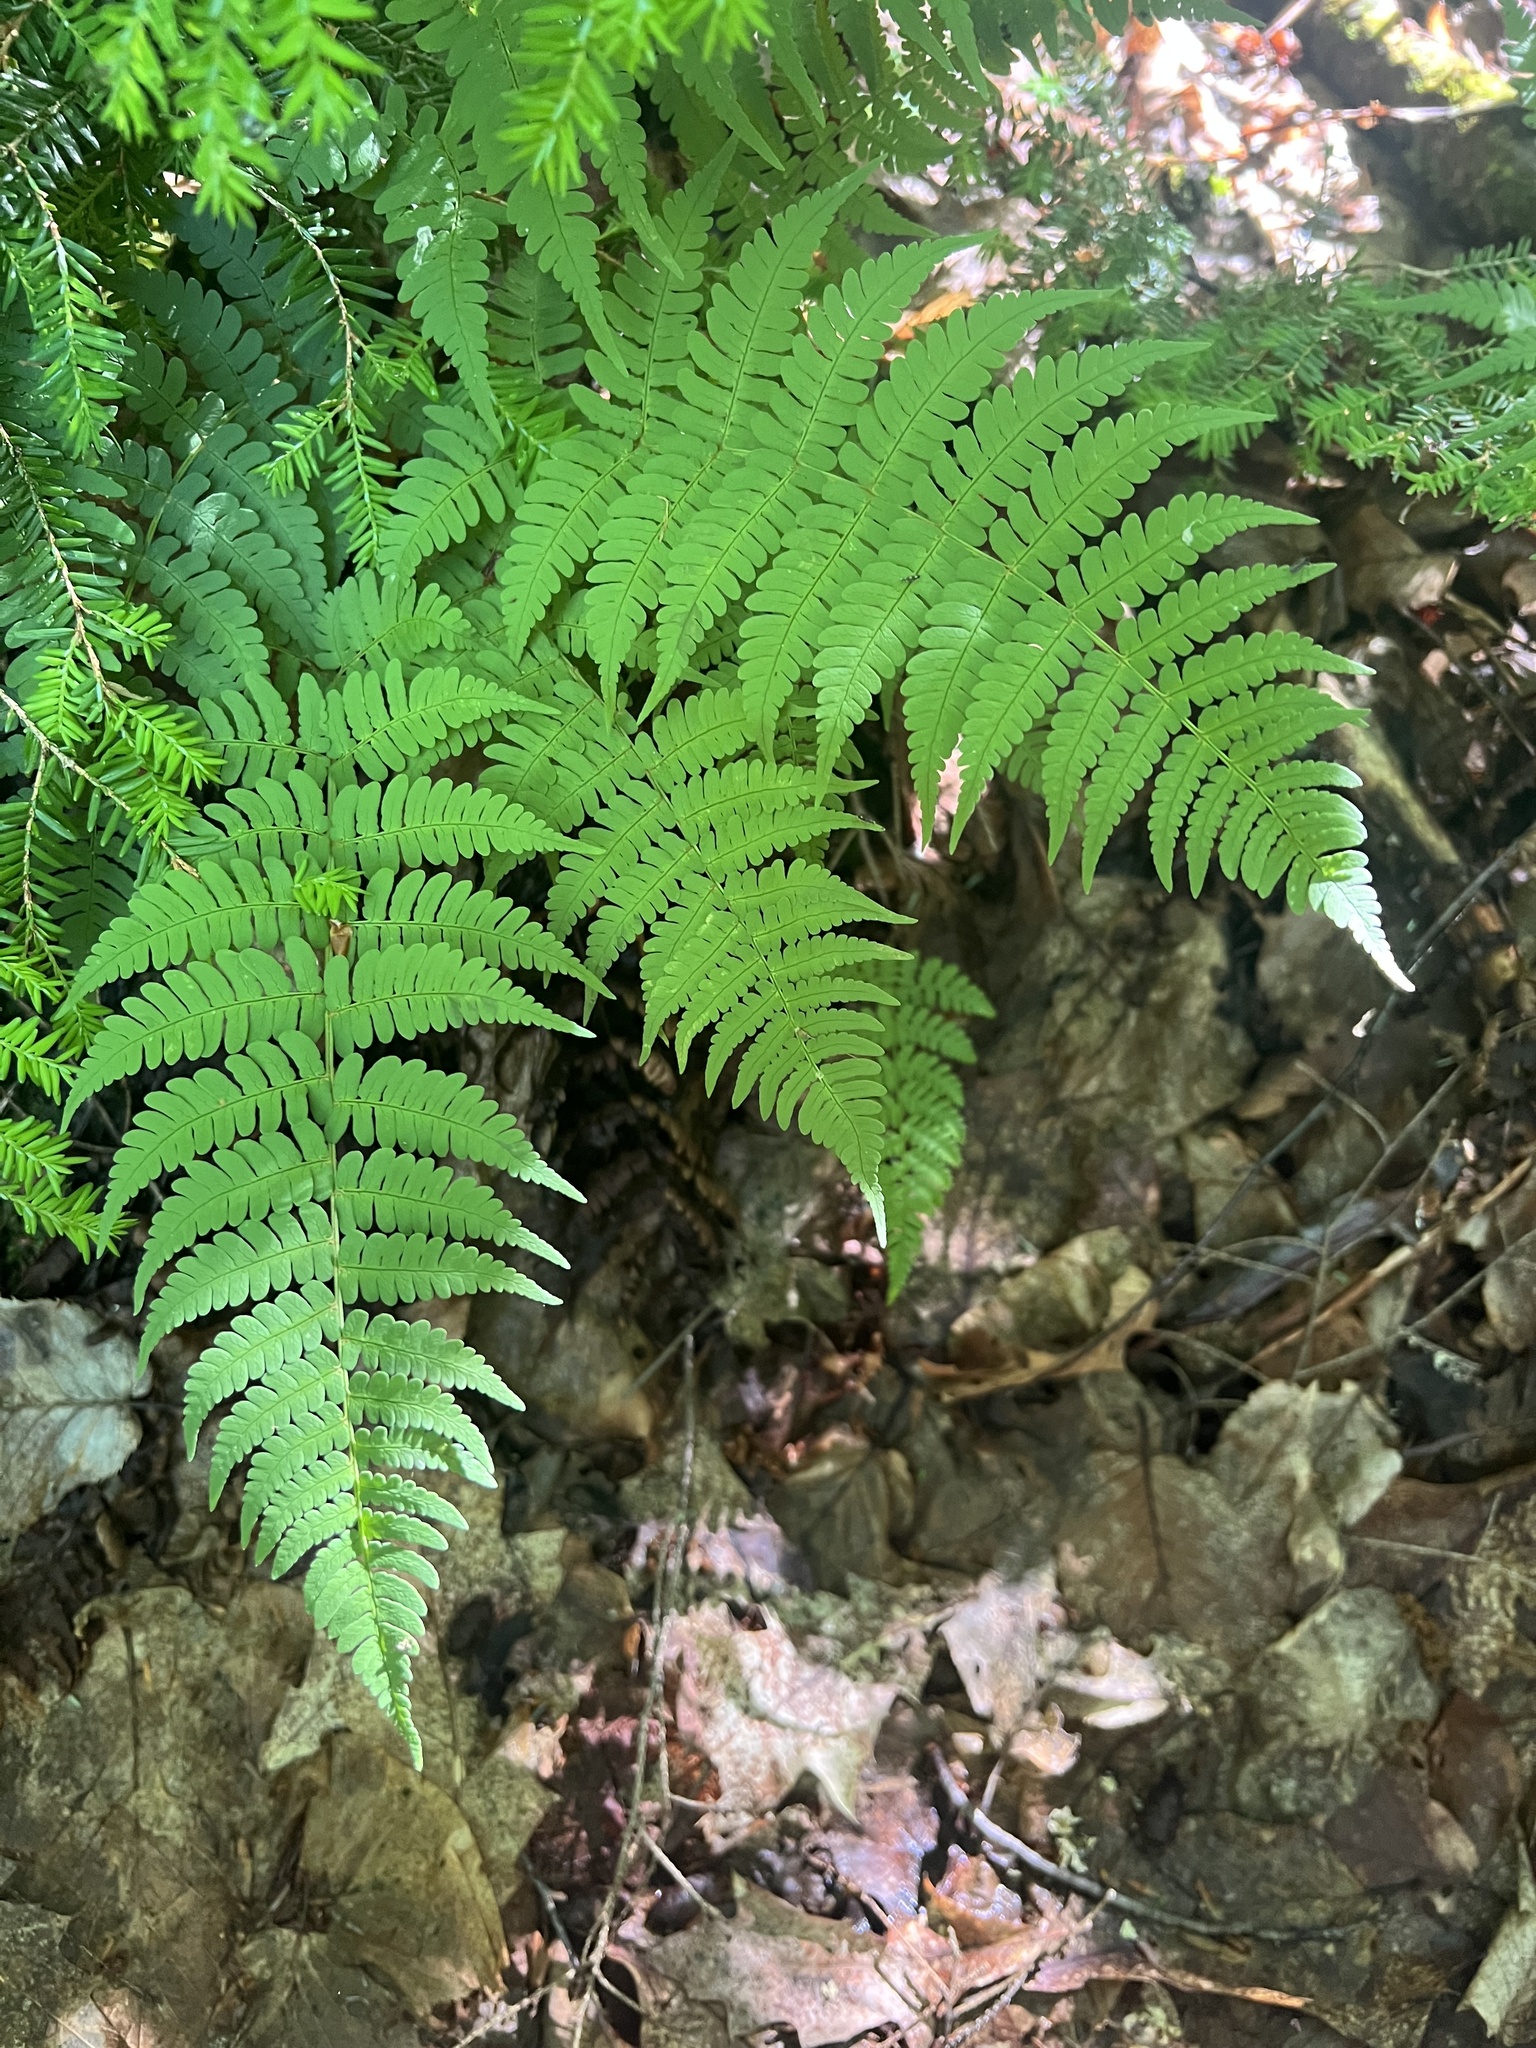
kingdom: Plantae
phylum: Tracheophyta
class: Polypodiopsida
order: Polypodiales
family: Dryopteridaceae
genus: Dryopteris
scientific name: Dryopteris marginalis
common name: Marginal wood fern
